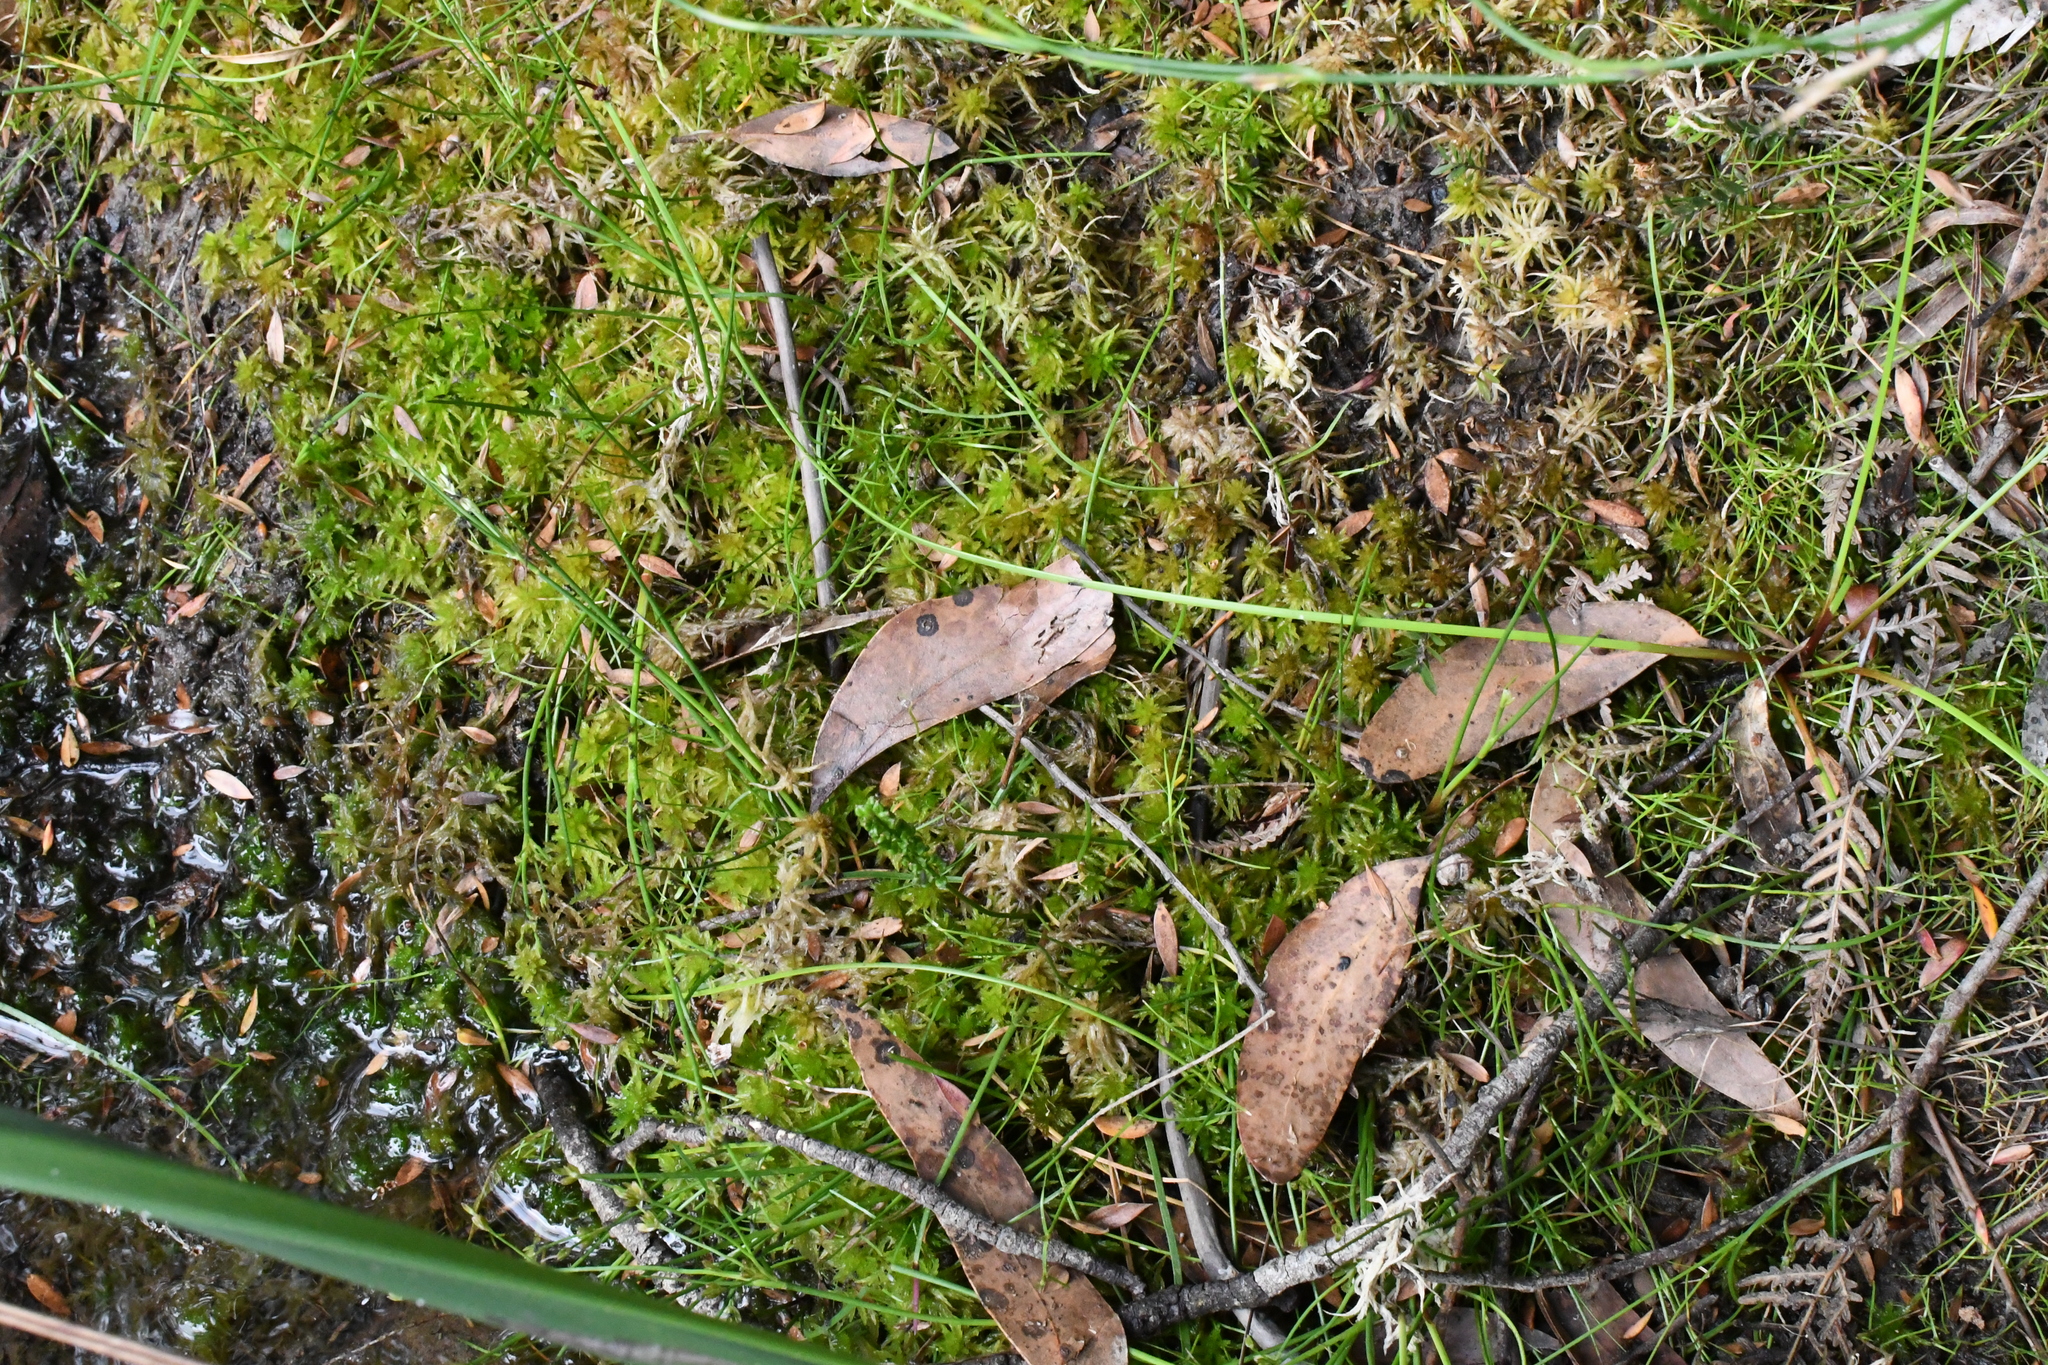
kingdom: Plantae
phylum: Bryophyta
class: Sphagnopsida
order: Sphagnales
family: Sphagnaceae
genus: Sphagnum
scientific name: Sphagnum novozelandicum
